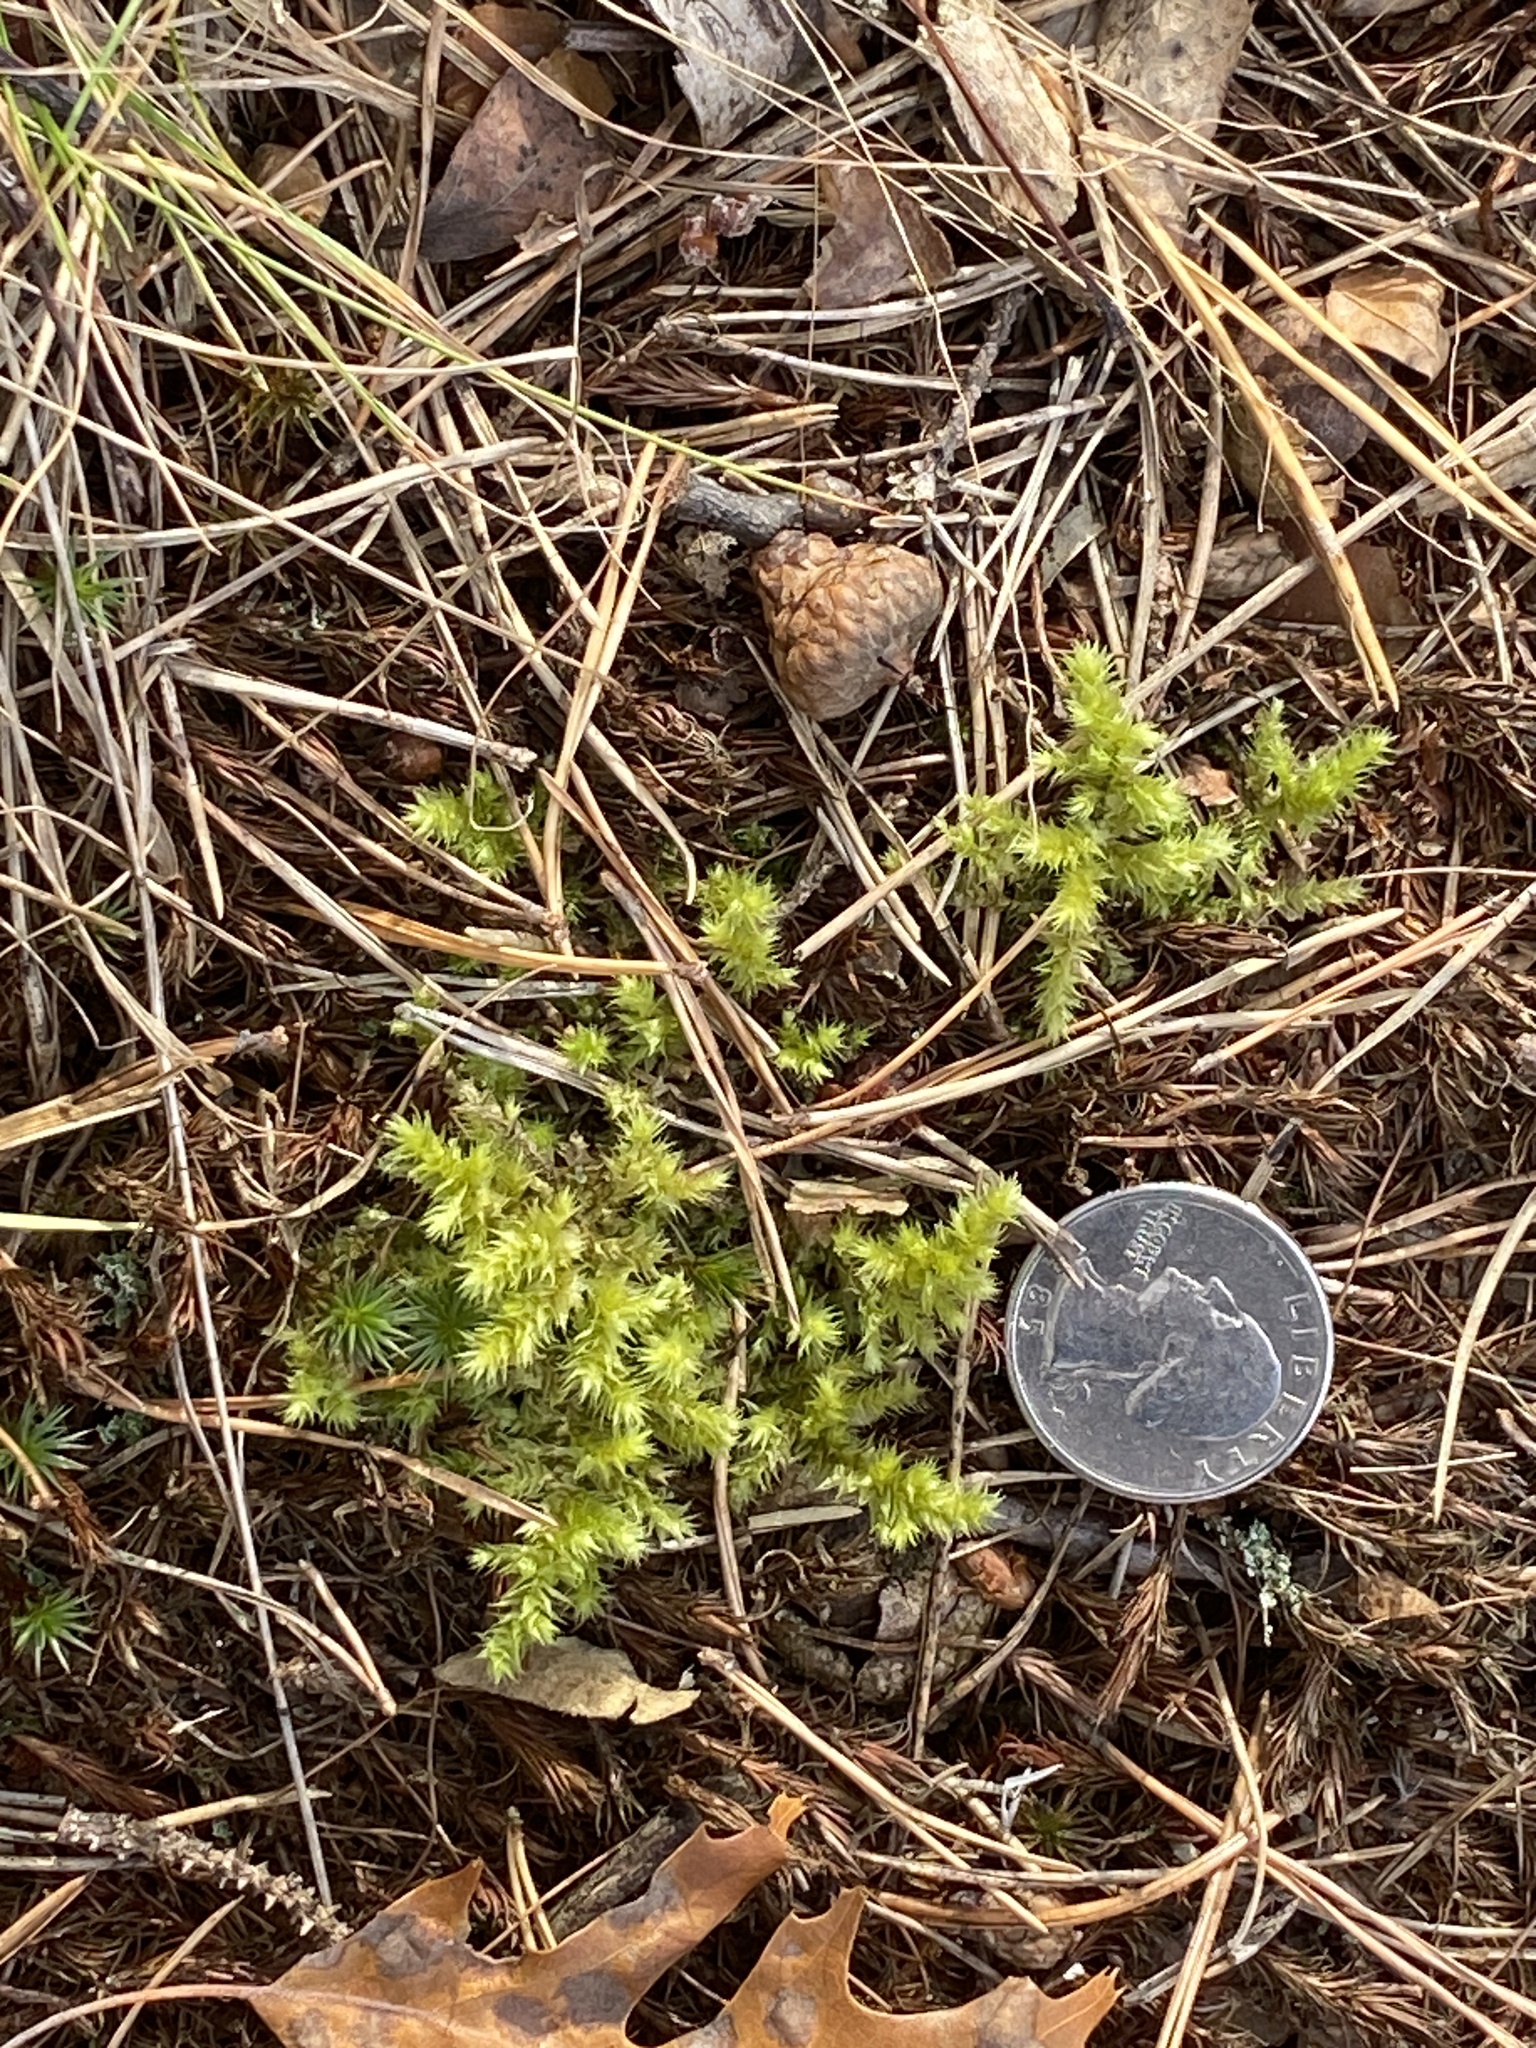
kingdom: Plantae
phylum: Bryophyta
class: Bryopsida
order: Hypnales
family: Hylocomiaceae
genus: Hylocomiadelphus
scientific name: Hylocomiadelphus triquetrus
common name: Rough goose neck moss
